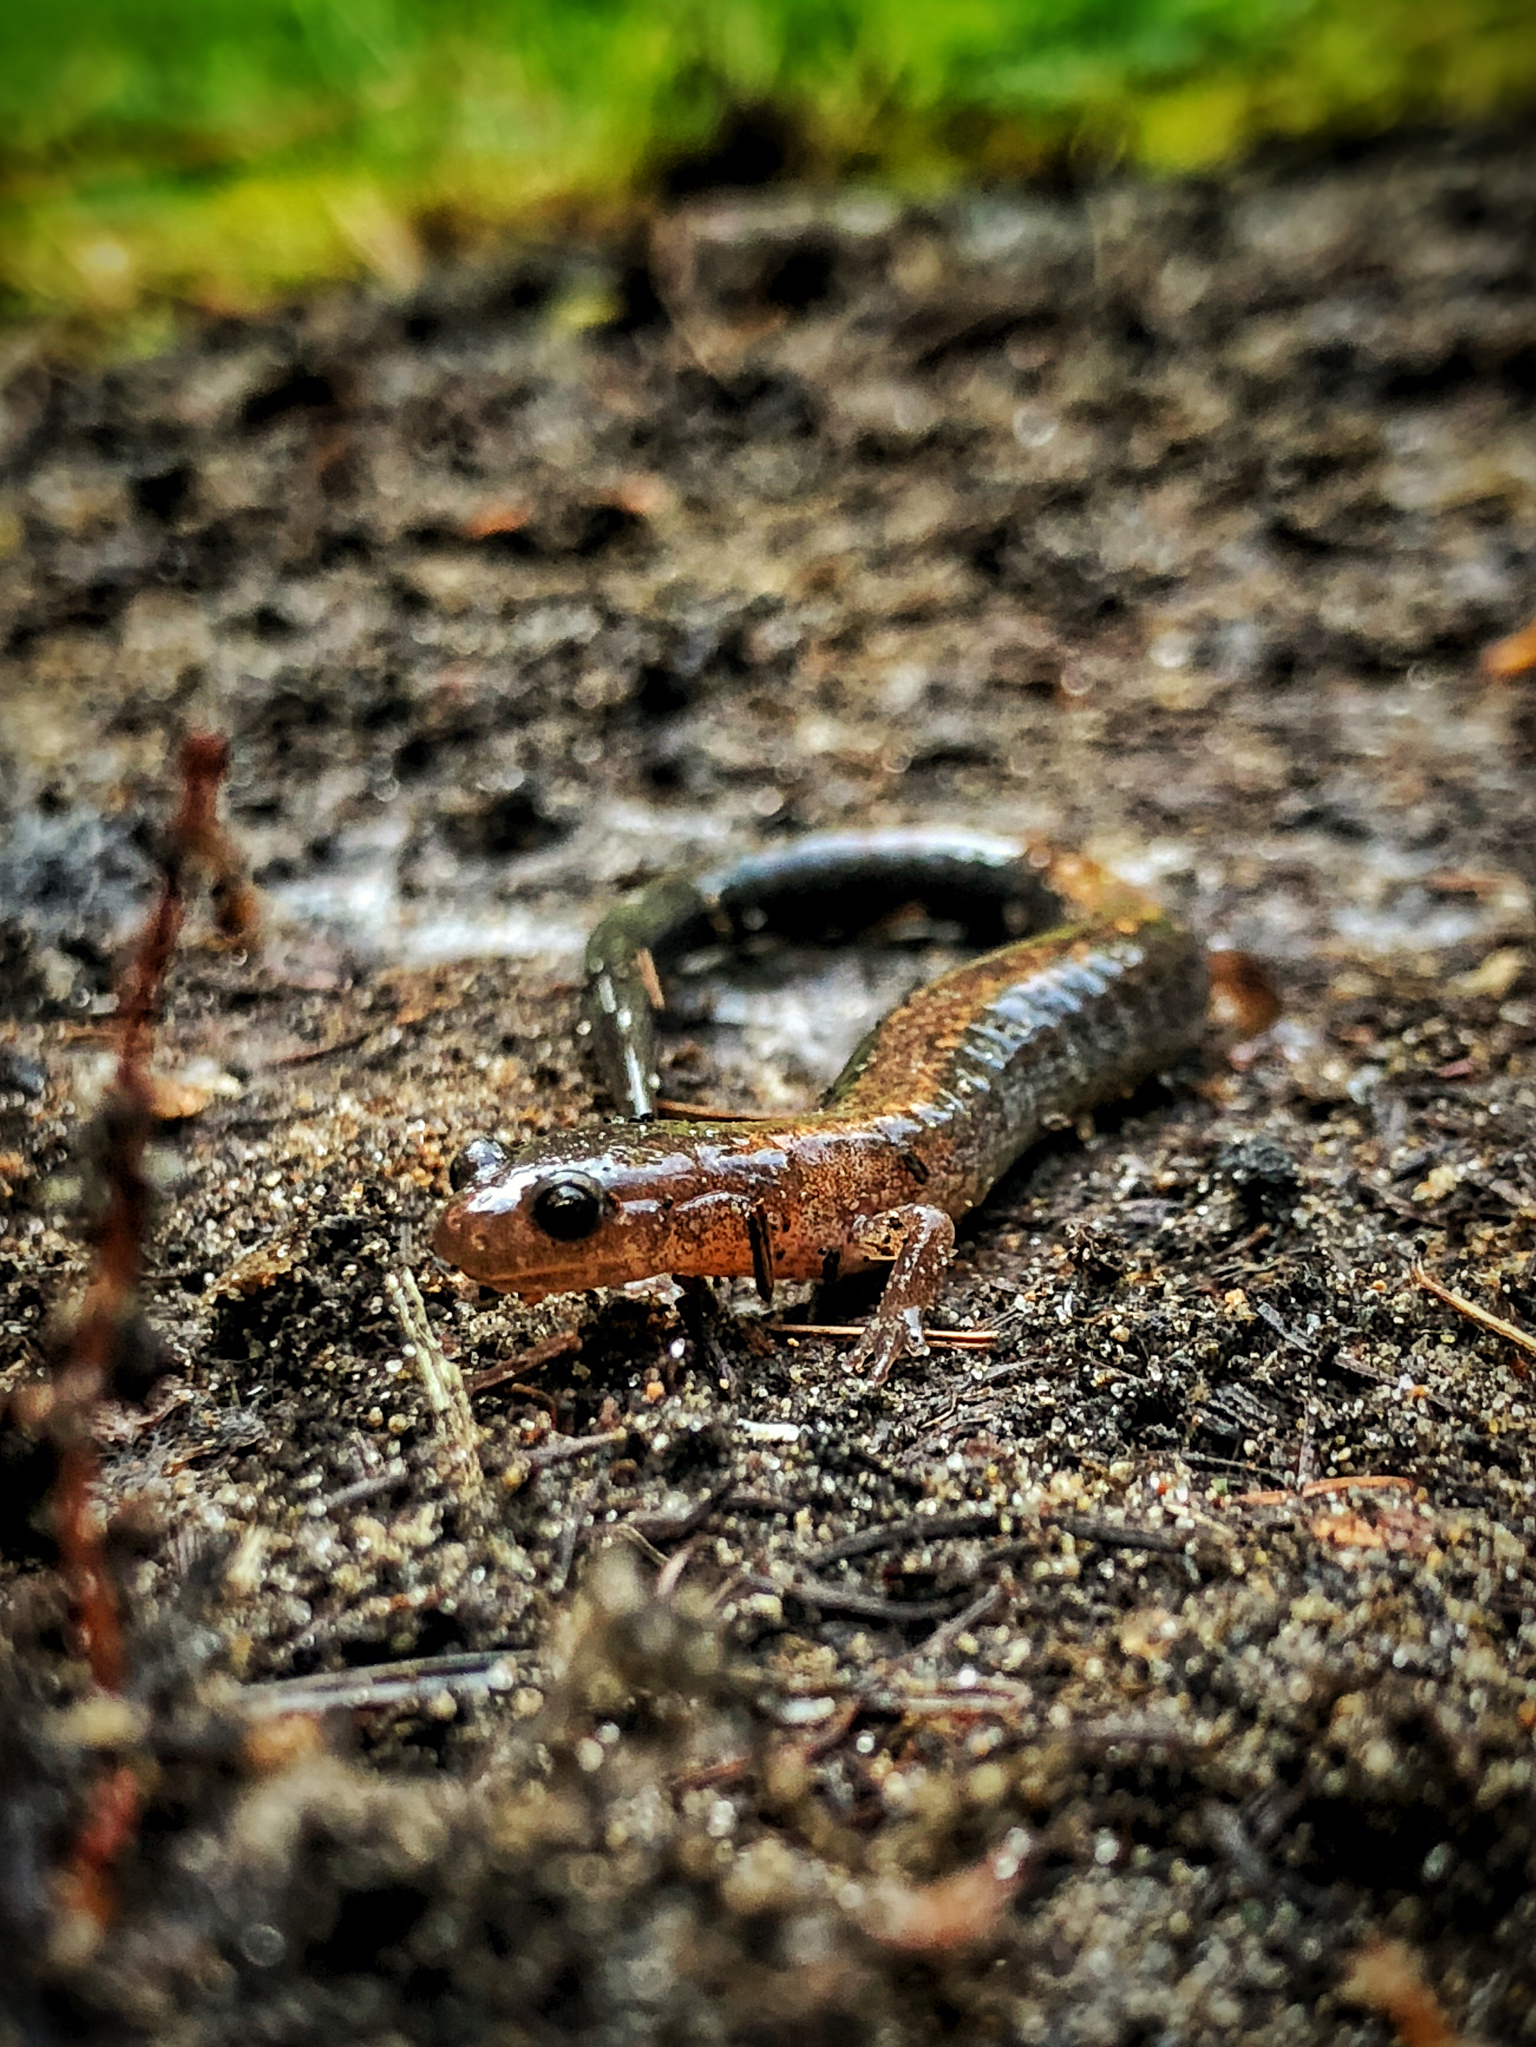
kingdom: Animalia
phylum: Chordata
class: Amphibia
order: Caudata
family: Plethodontidae
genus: Plethodon
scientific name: Plethodon cinereus
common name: Redback salamander
